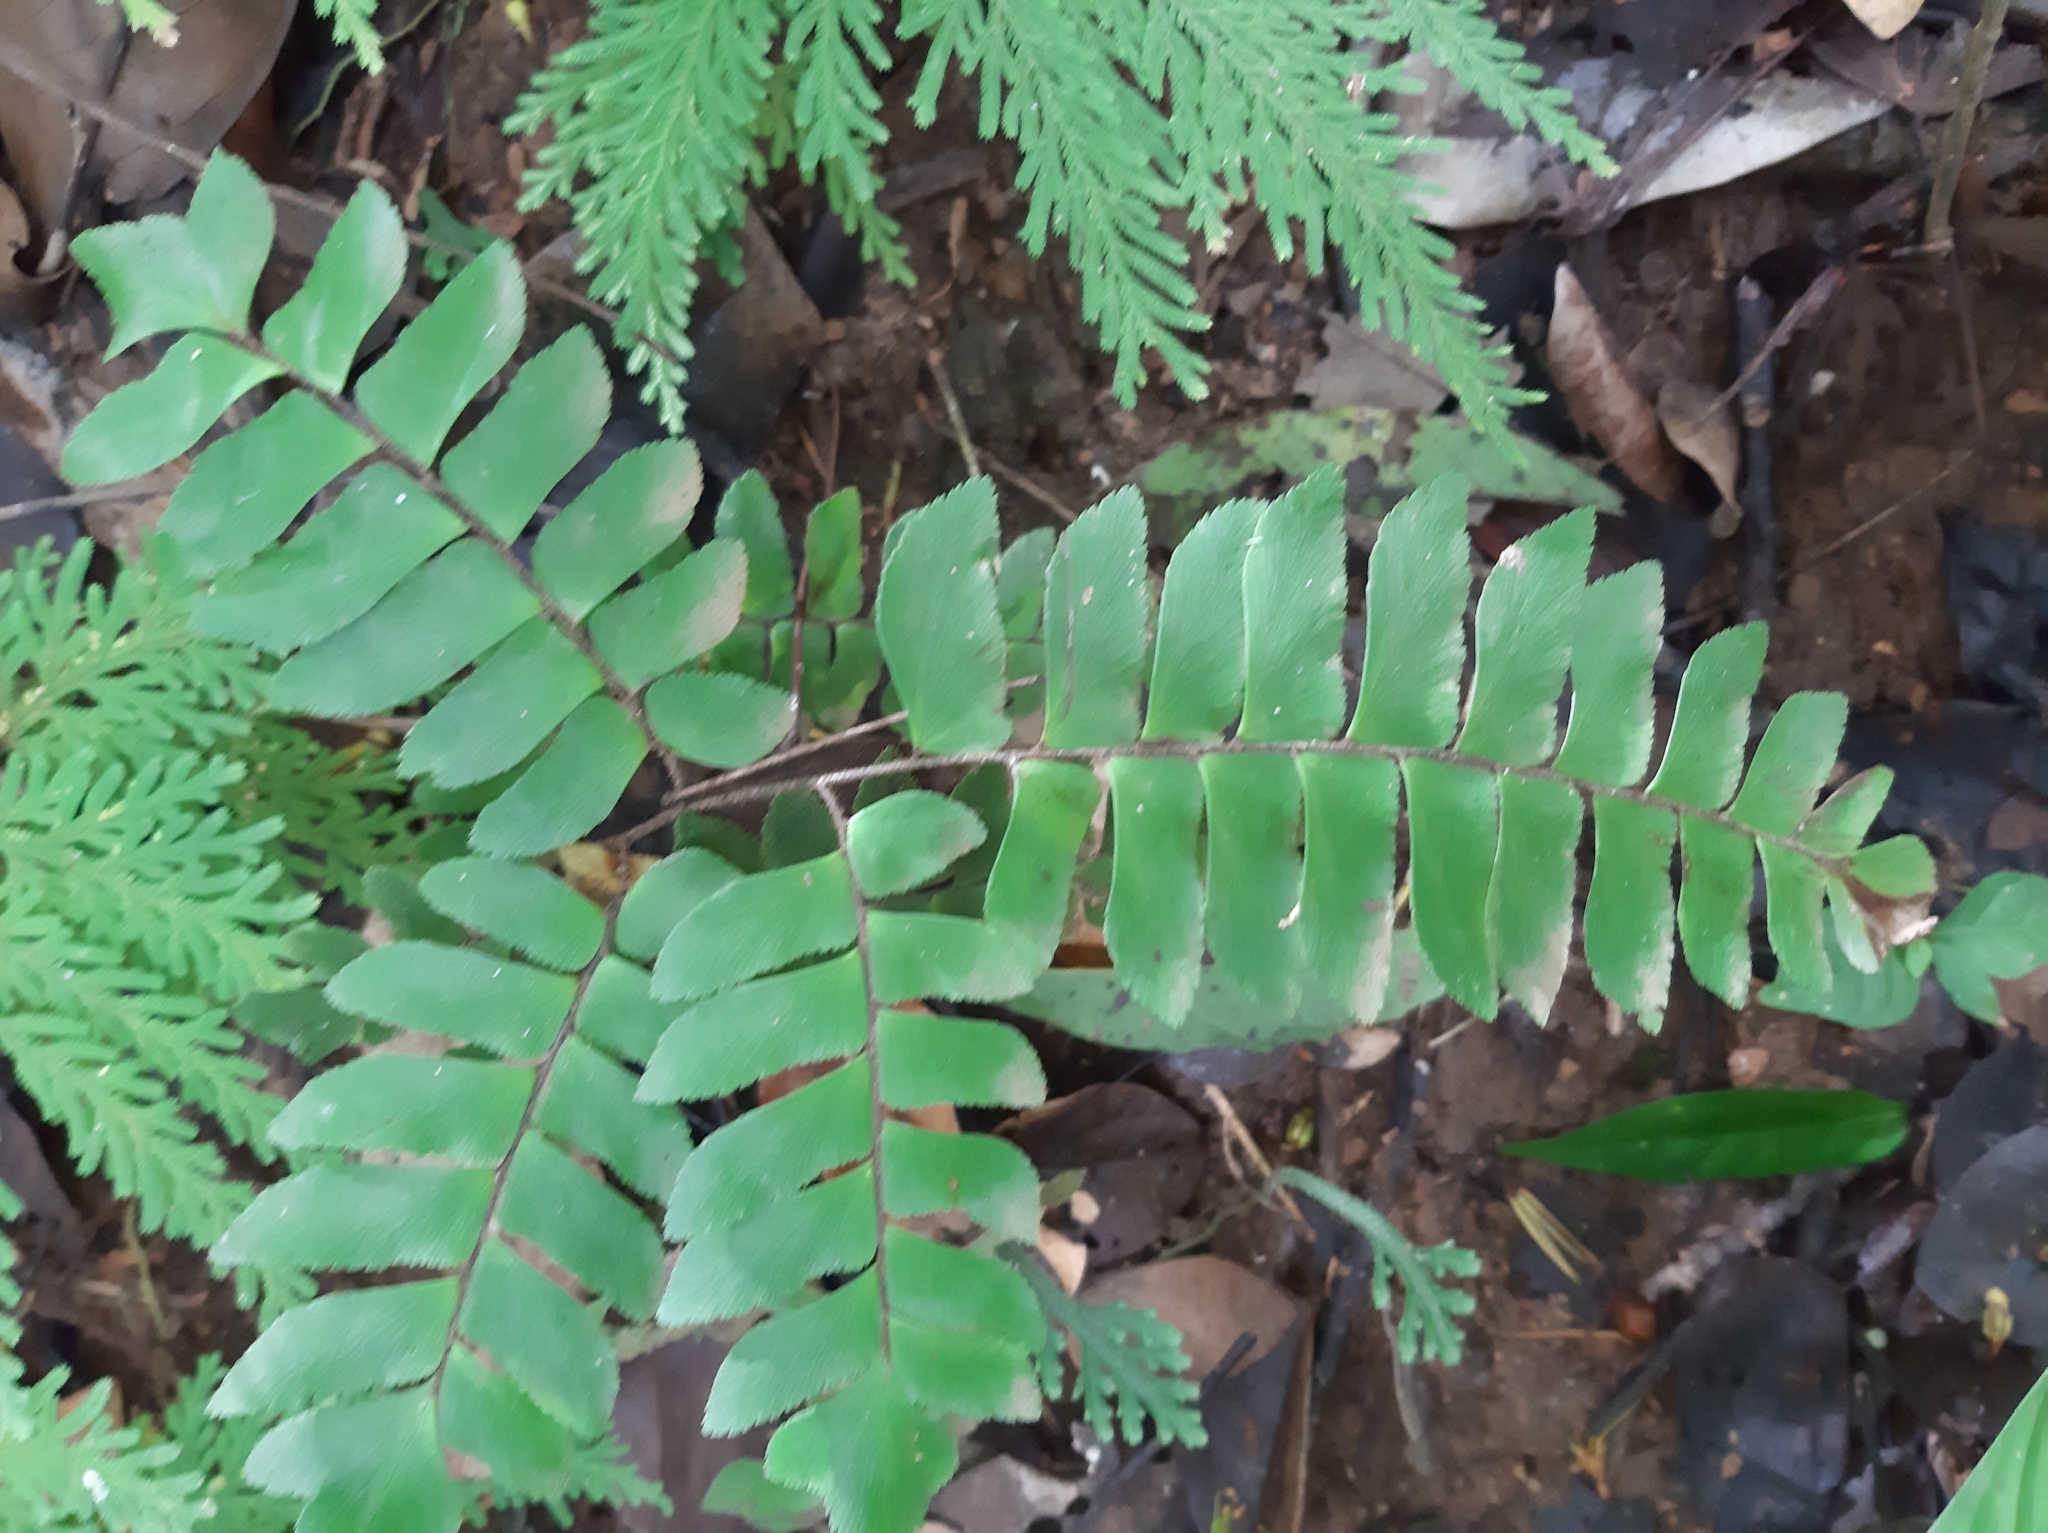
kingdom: Plantae
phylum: Tracheophyta
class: Polypodiopsida
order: Polypodiales
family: Pteridaceae
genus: Adiantum
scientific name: Adiantum latifolium
